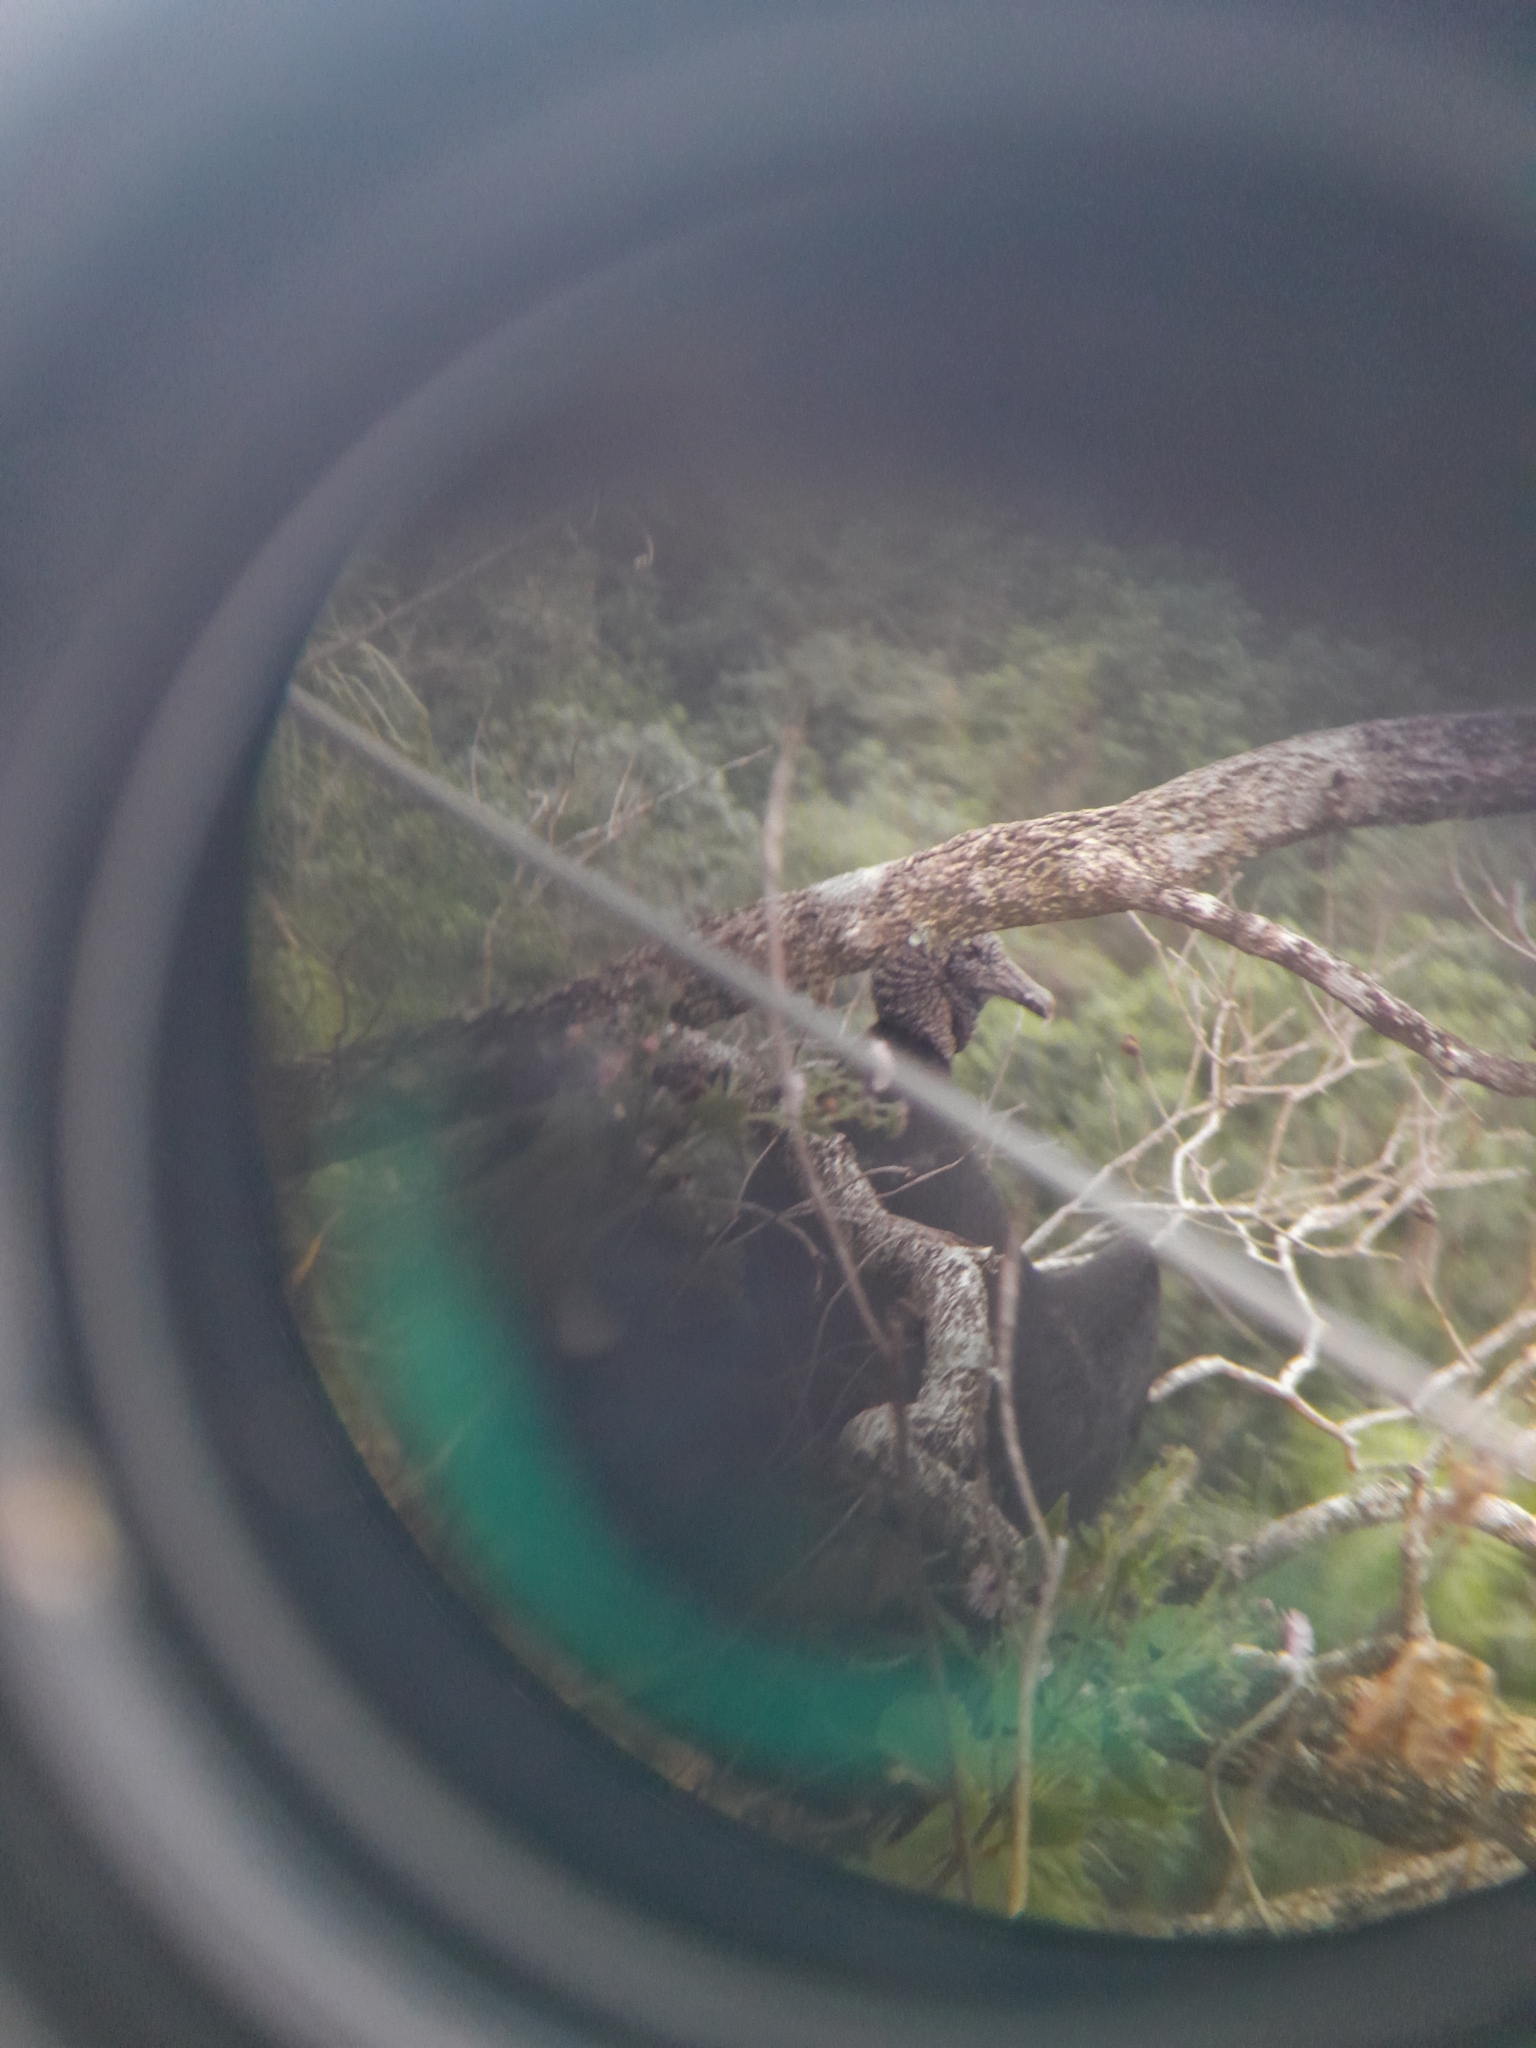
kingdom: Animalia
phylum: Chordata
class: Aves
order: Accipitriformes
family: Cathartidae
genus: Coragyps
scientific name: Coragyps atratus
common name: Black vulture
